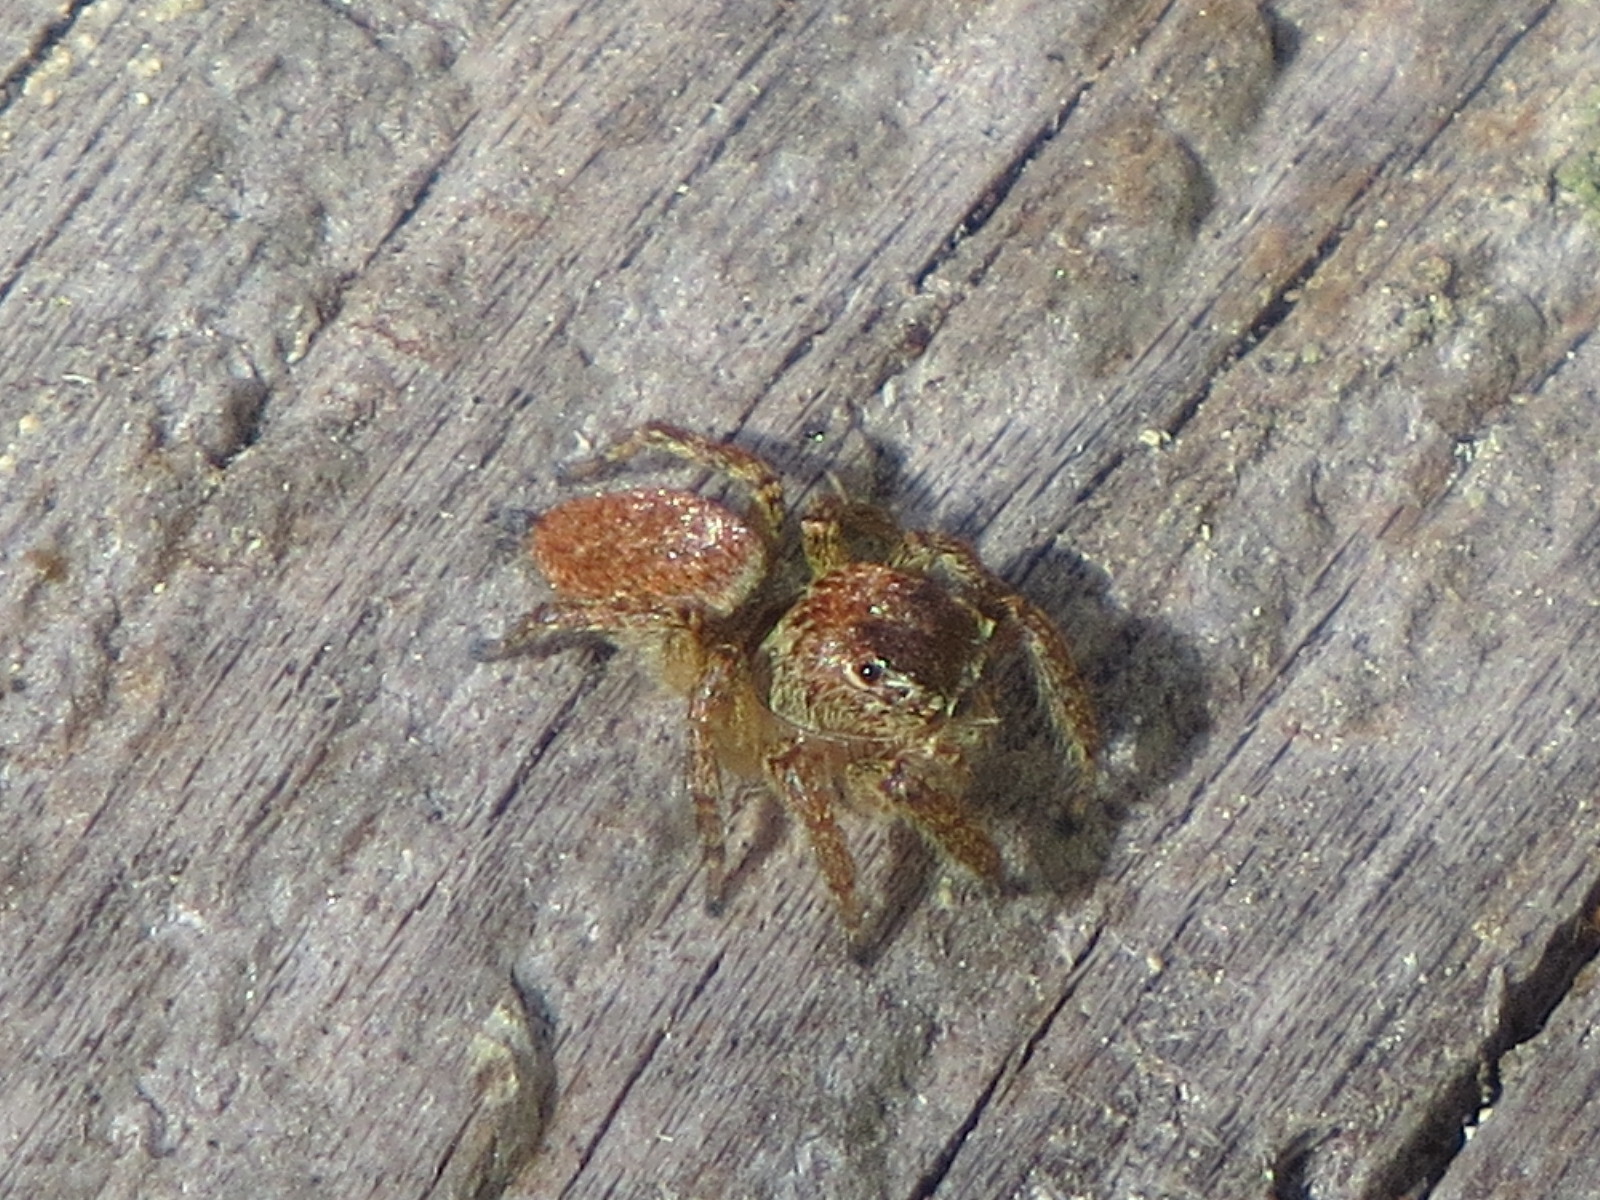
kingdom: Animalia
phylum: Arthropoda
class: Arachnida
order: Araneae
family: Salticidae
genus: Evarcha
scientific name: Evarcha proszynskii
